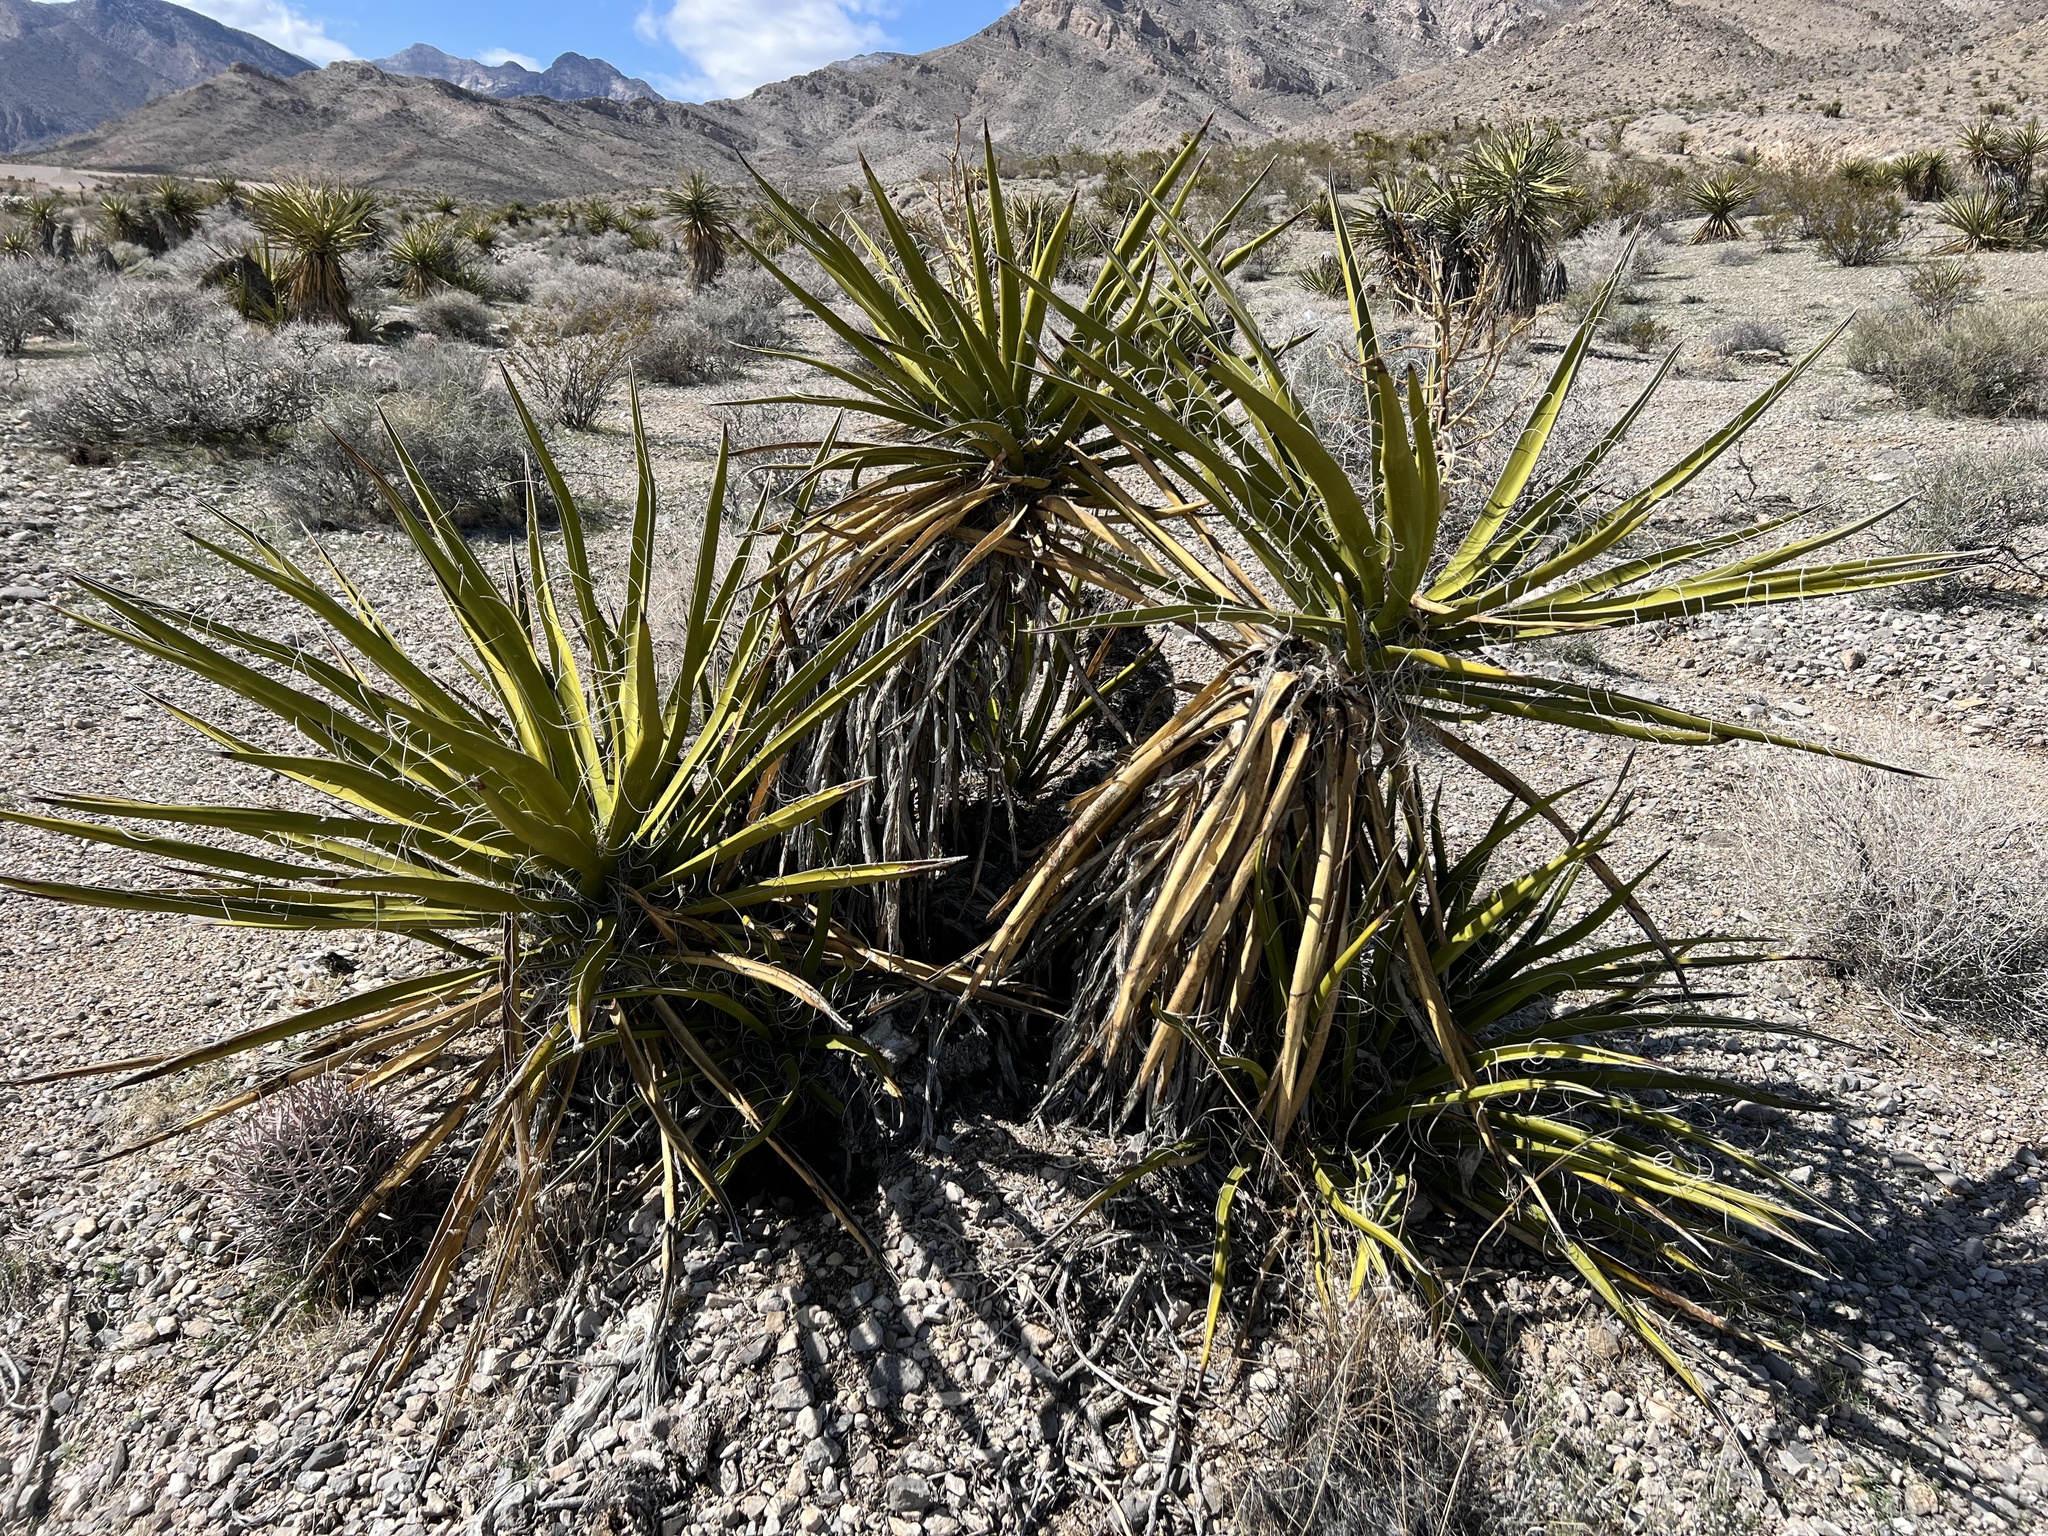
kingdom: Plantae
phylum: Tracheophyta
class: Liliopsida
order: Asparagales
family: Asparagaceae
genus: Yucca
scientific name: Yucca schidigera
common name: Mojave yucca
